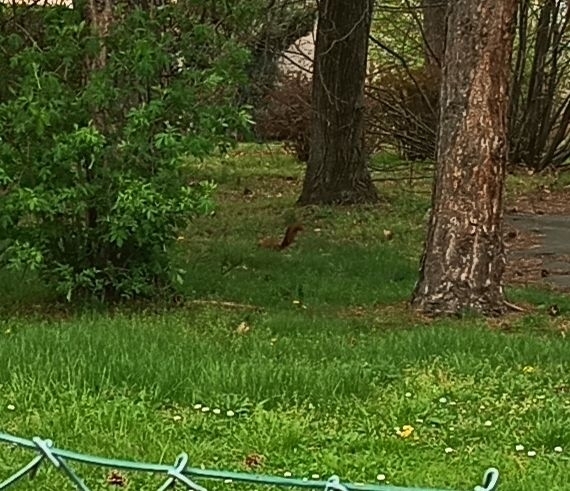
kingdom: Animalia
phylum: Chordata
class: Mammalia
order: Rodentia
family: Sciuridae
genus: Sciurus
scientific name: Sciurus vulgaris
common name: Eurasian red squirrel
